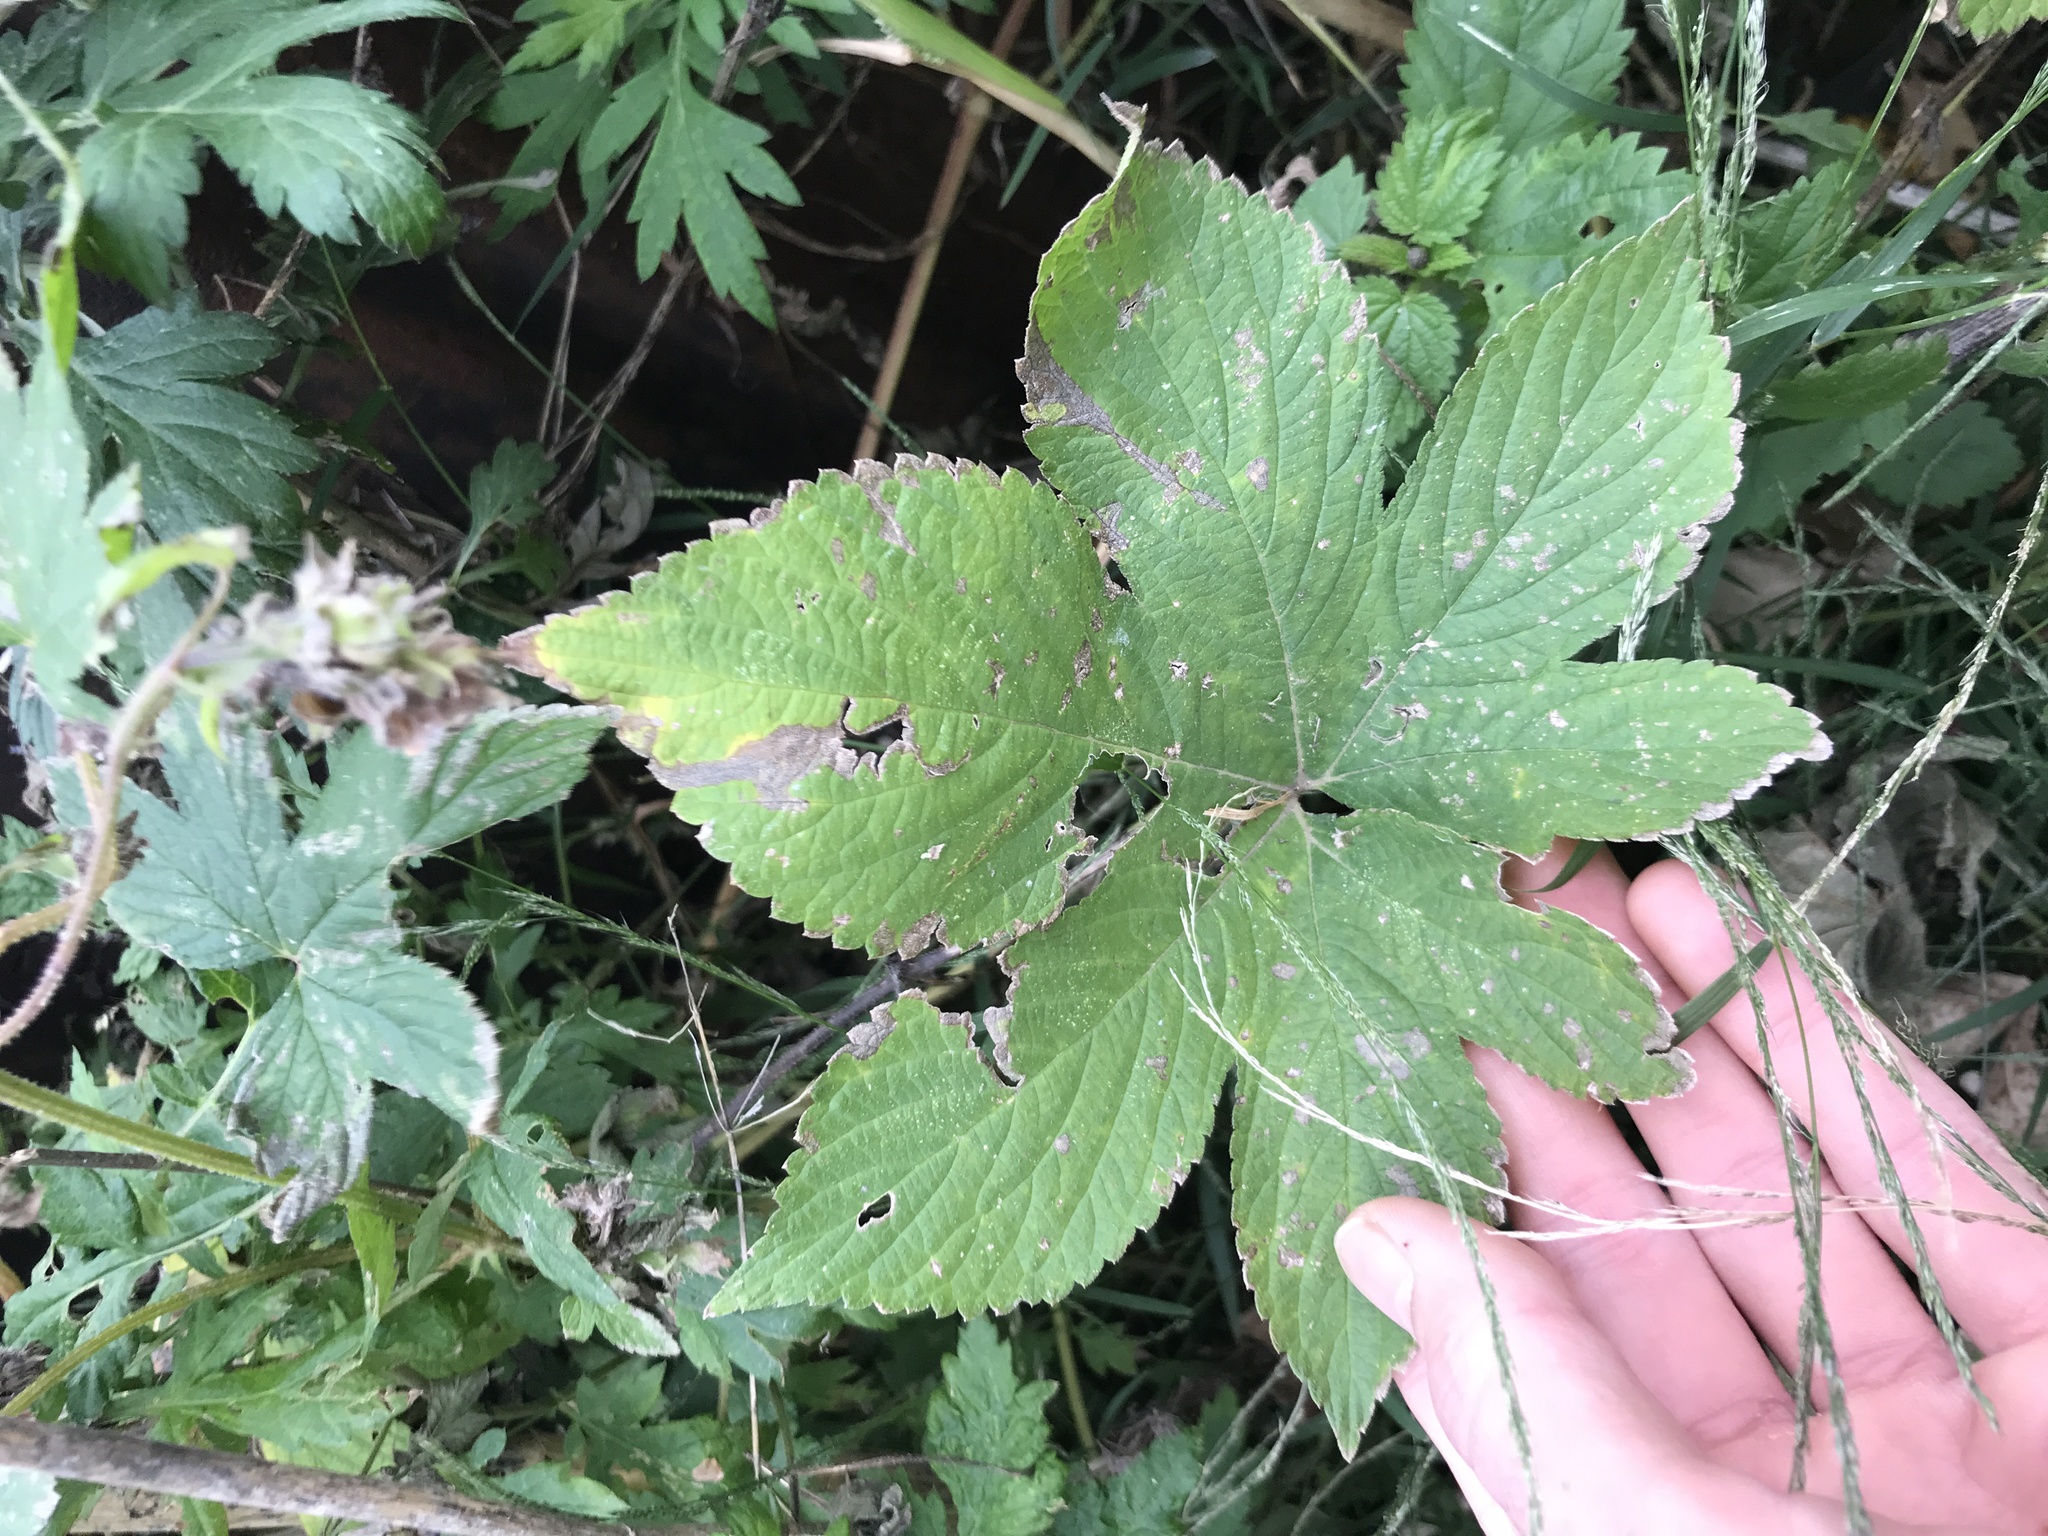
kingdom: Plantae
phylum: Tracheophyta
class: Magnoliopsida
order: Rosales
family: Cannabaceae
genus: Humulus
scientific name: Humulus scandens
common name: Japanese hop
